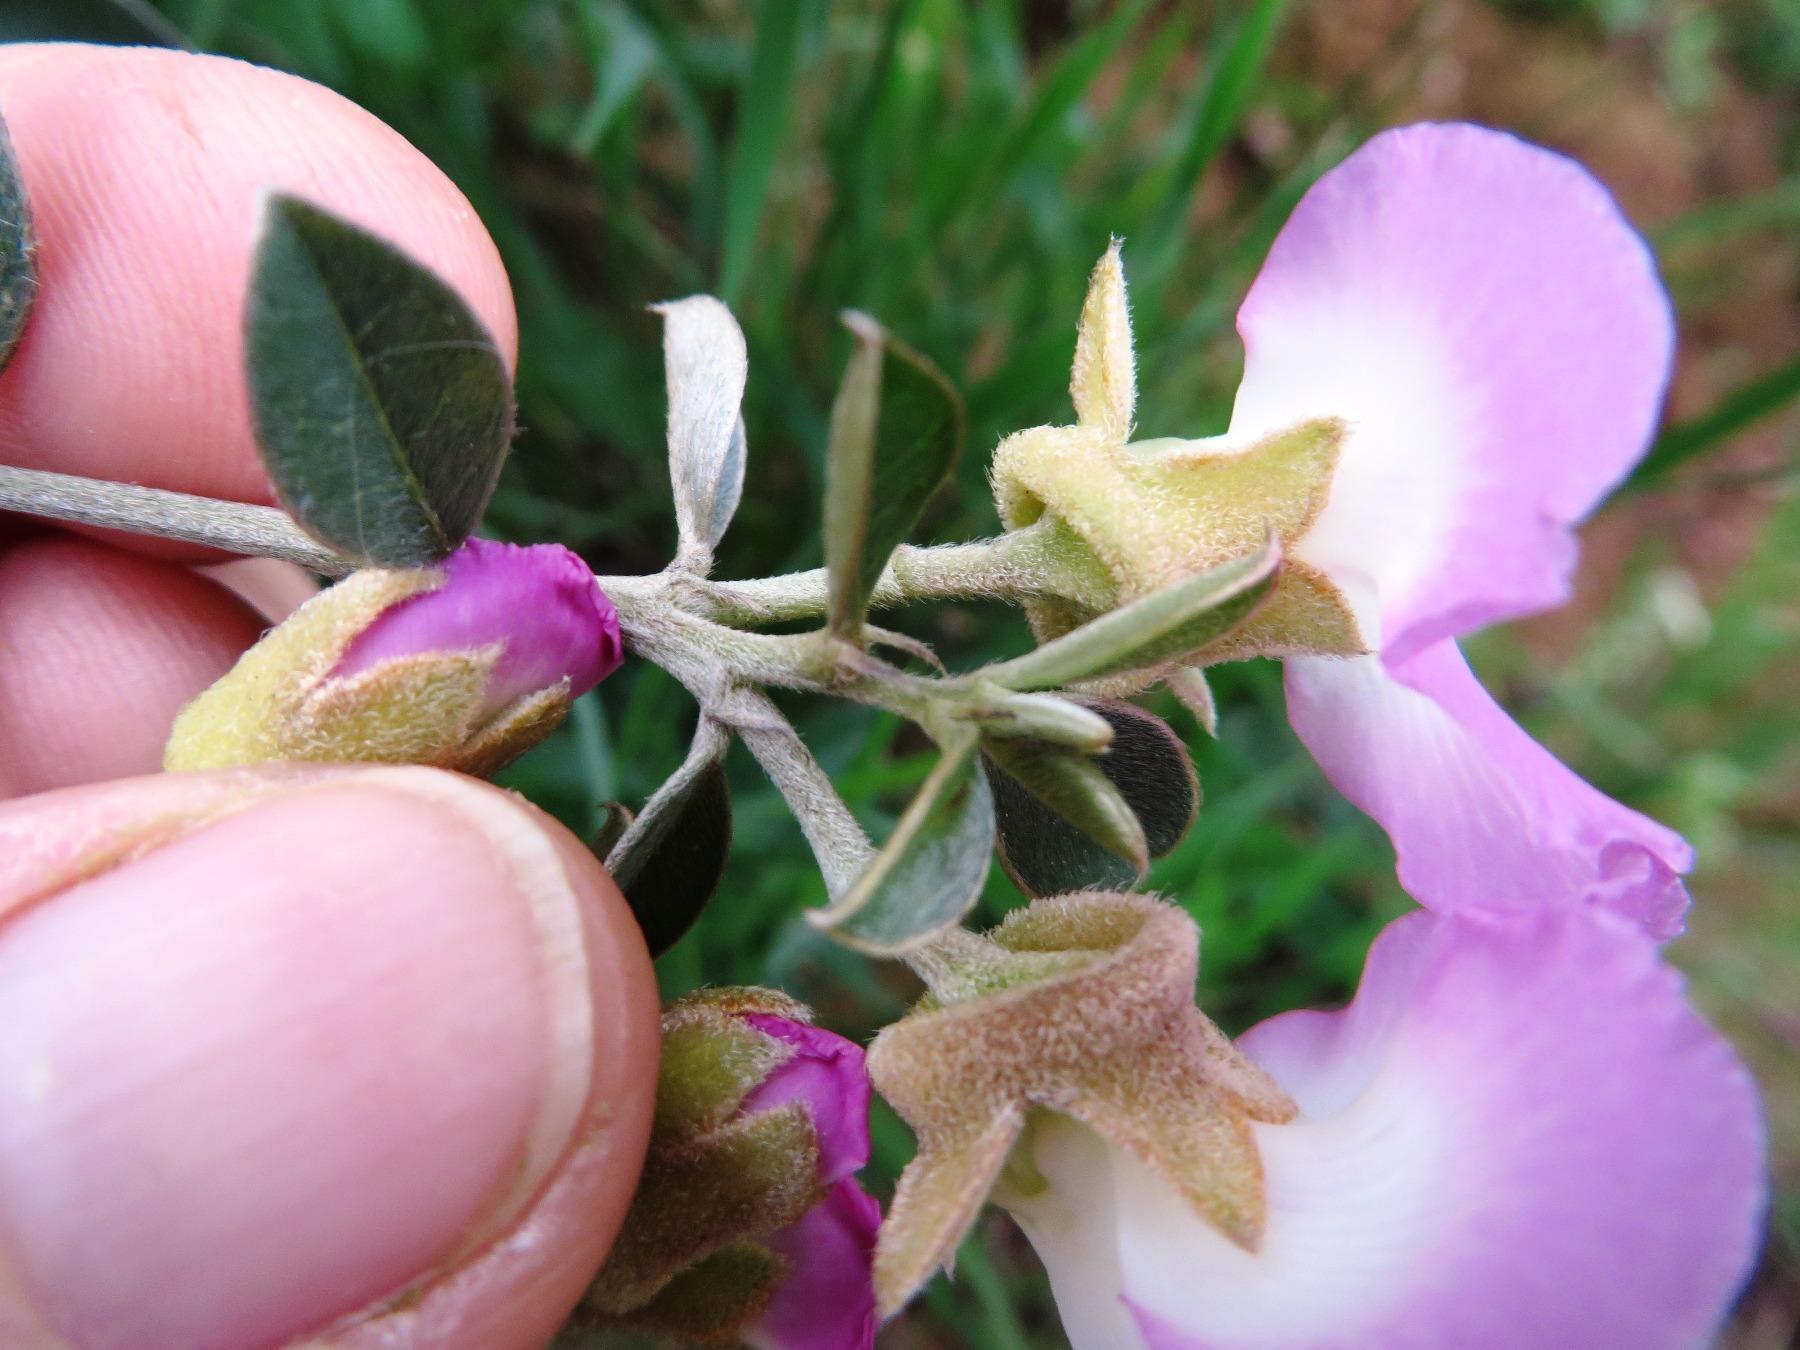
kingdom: Plantae
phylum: Tracheophyta
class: Magnoliopsida
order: Fabales
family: Fabaceae
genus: Podalyria
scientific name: Podalyria variabilis
